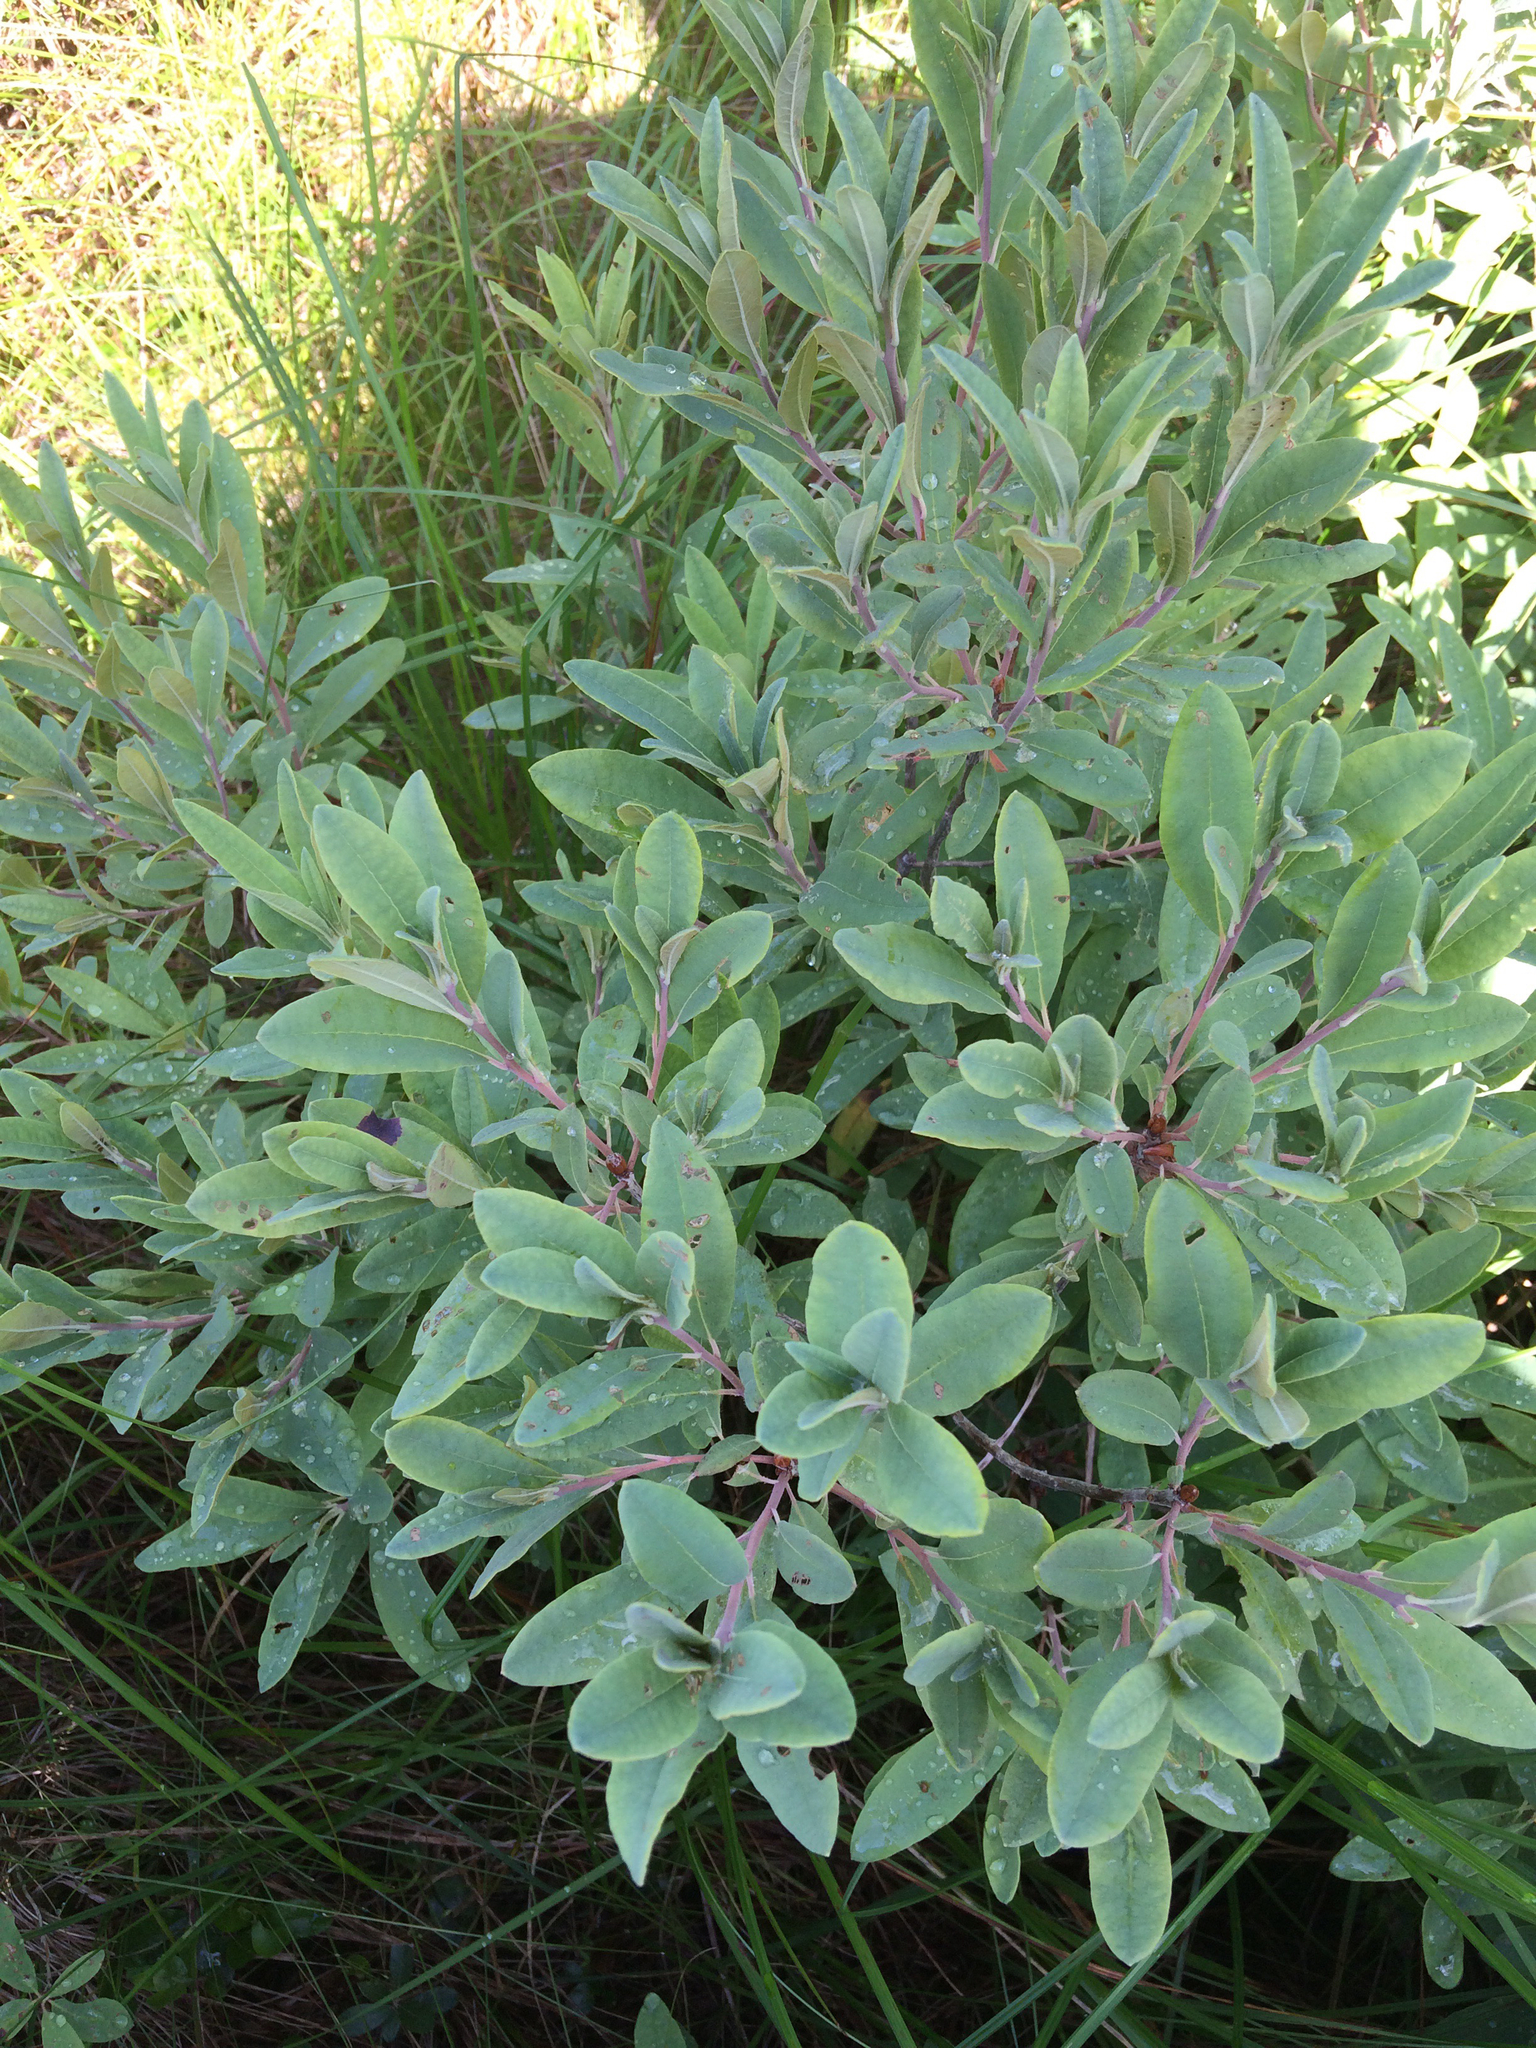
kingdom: Plantae
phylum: Tracheophyta
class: Magnoliopsida
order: Ericales
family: Ericaceae
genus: Rhododendron
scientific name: Rhododendron canadense
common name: Rhodora
